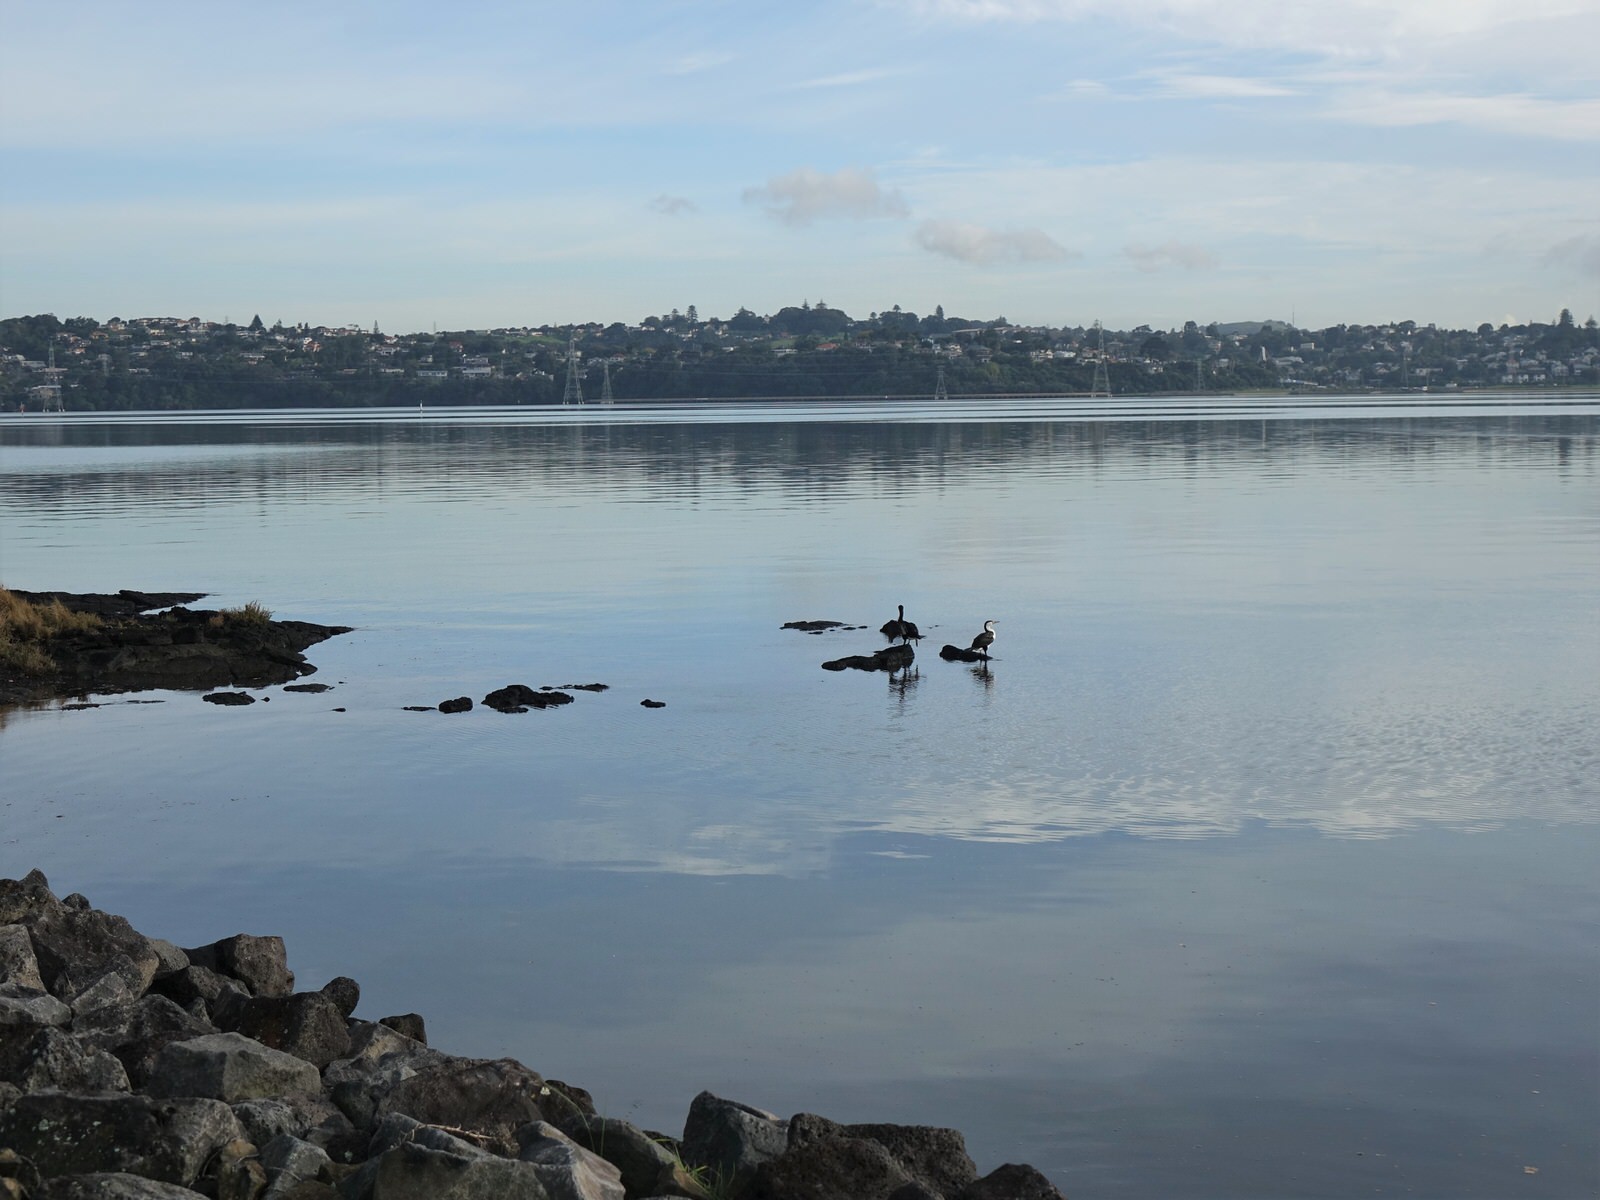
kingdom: Animalia
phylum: Chordata
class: Aves
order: Suliformes
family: Phalacrocoracidae
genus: Phalacrocorax
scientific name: Phalacrocorax varius
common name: Pied cormorant
